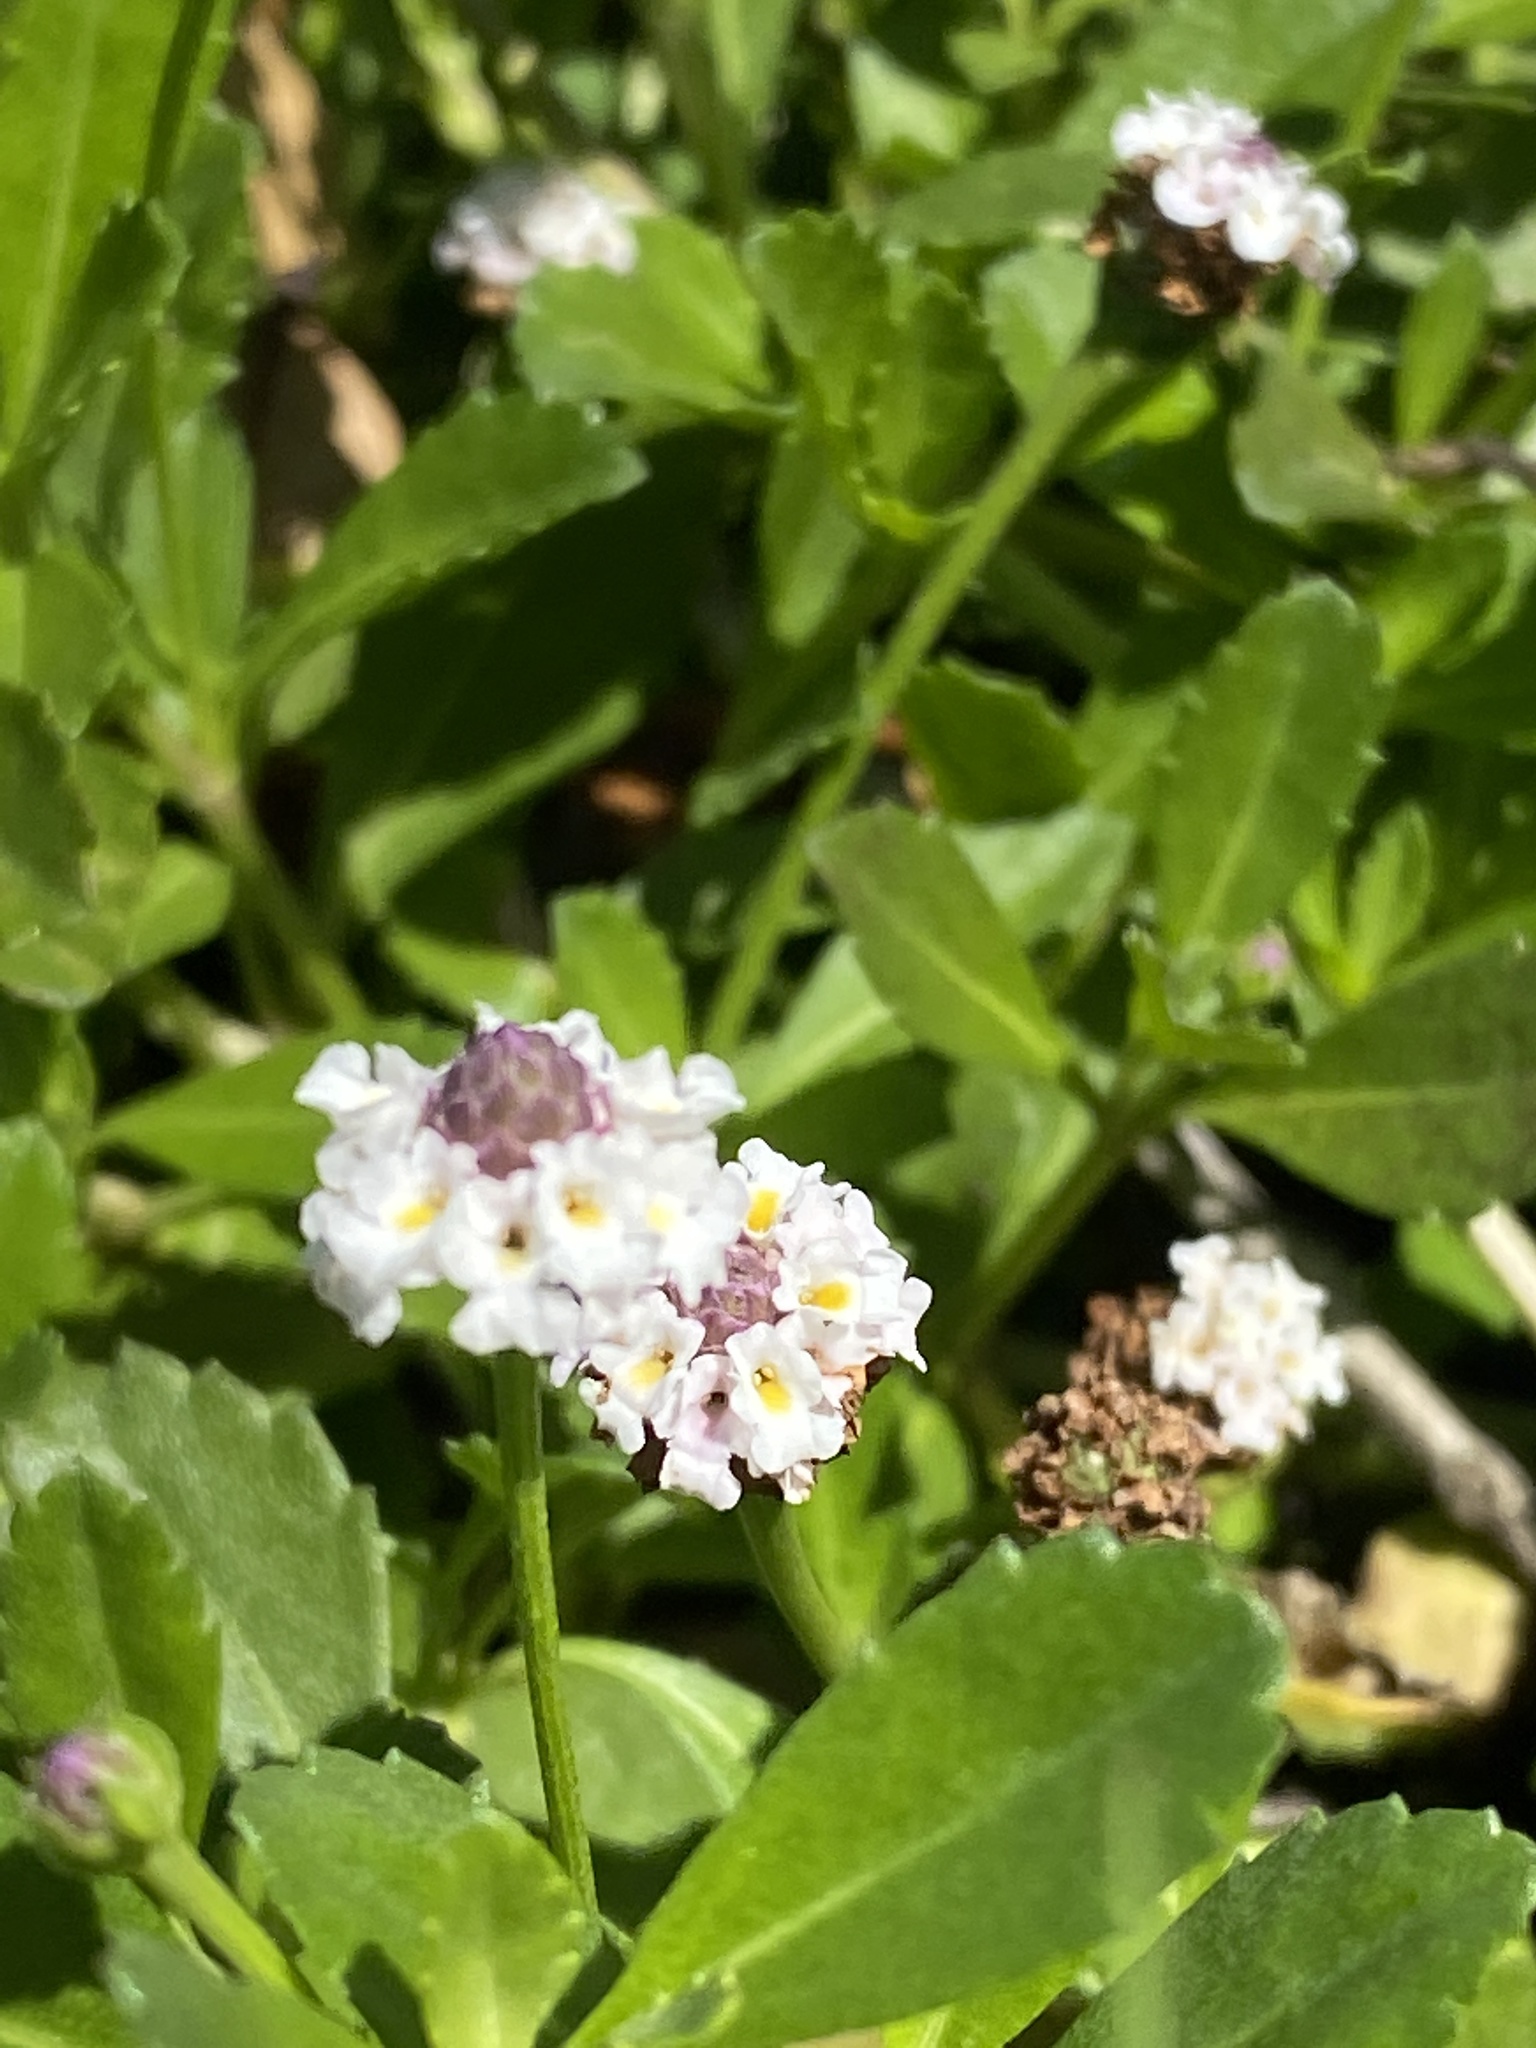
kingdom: Plantae
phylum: Tracheophyta
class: Magnoliopsida
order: Lamiales
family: Verbenaceae
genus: Phyla
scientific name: Phyla nodiflora
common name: Frogfruit
